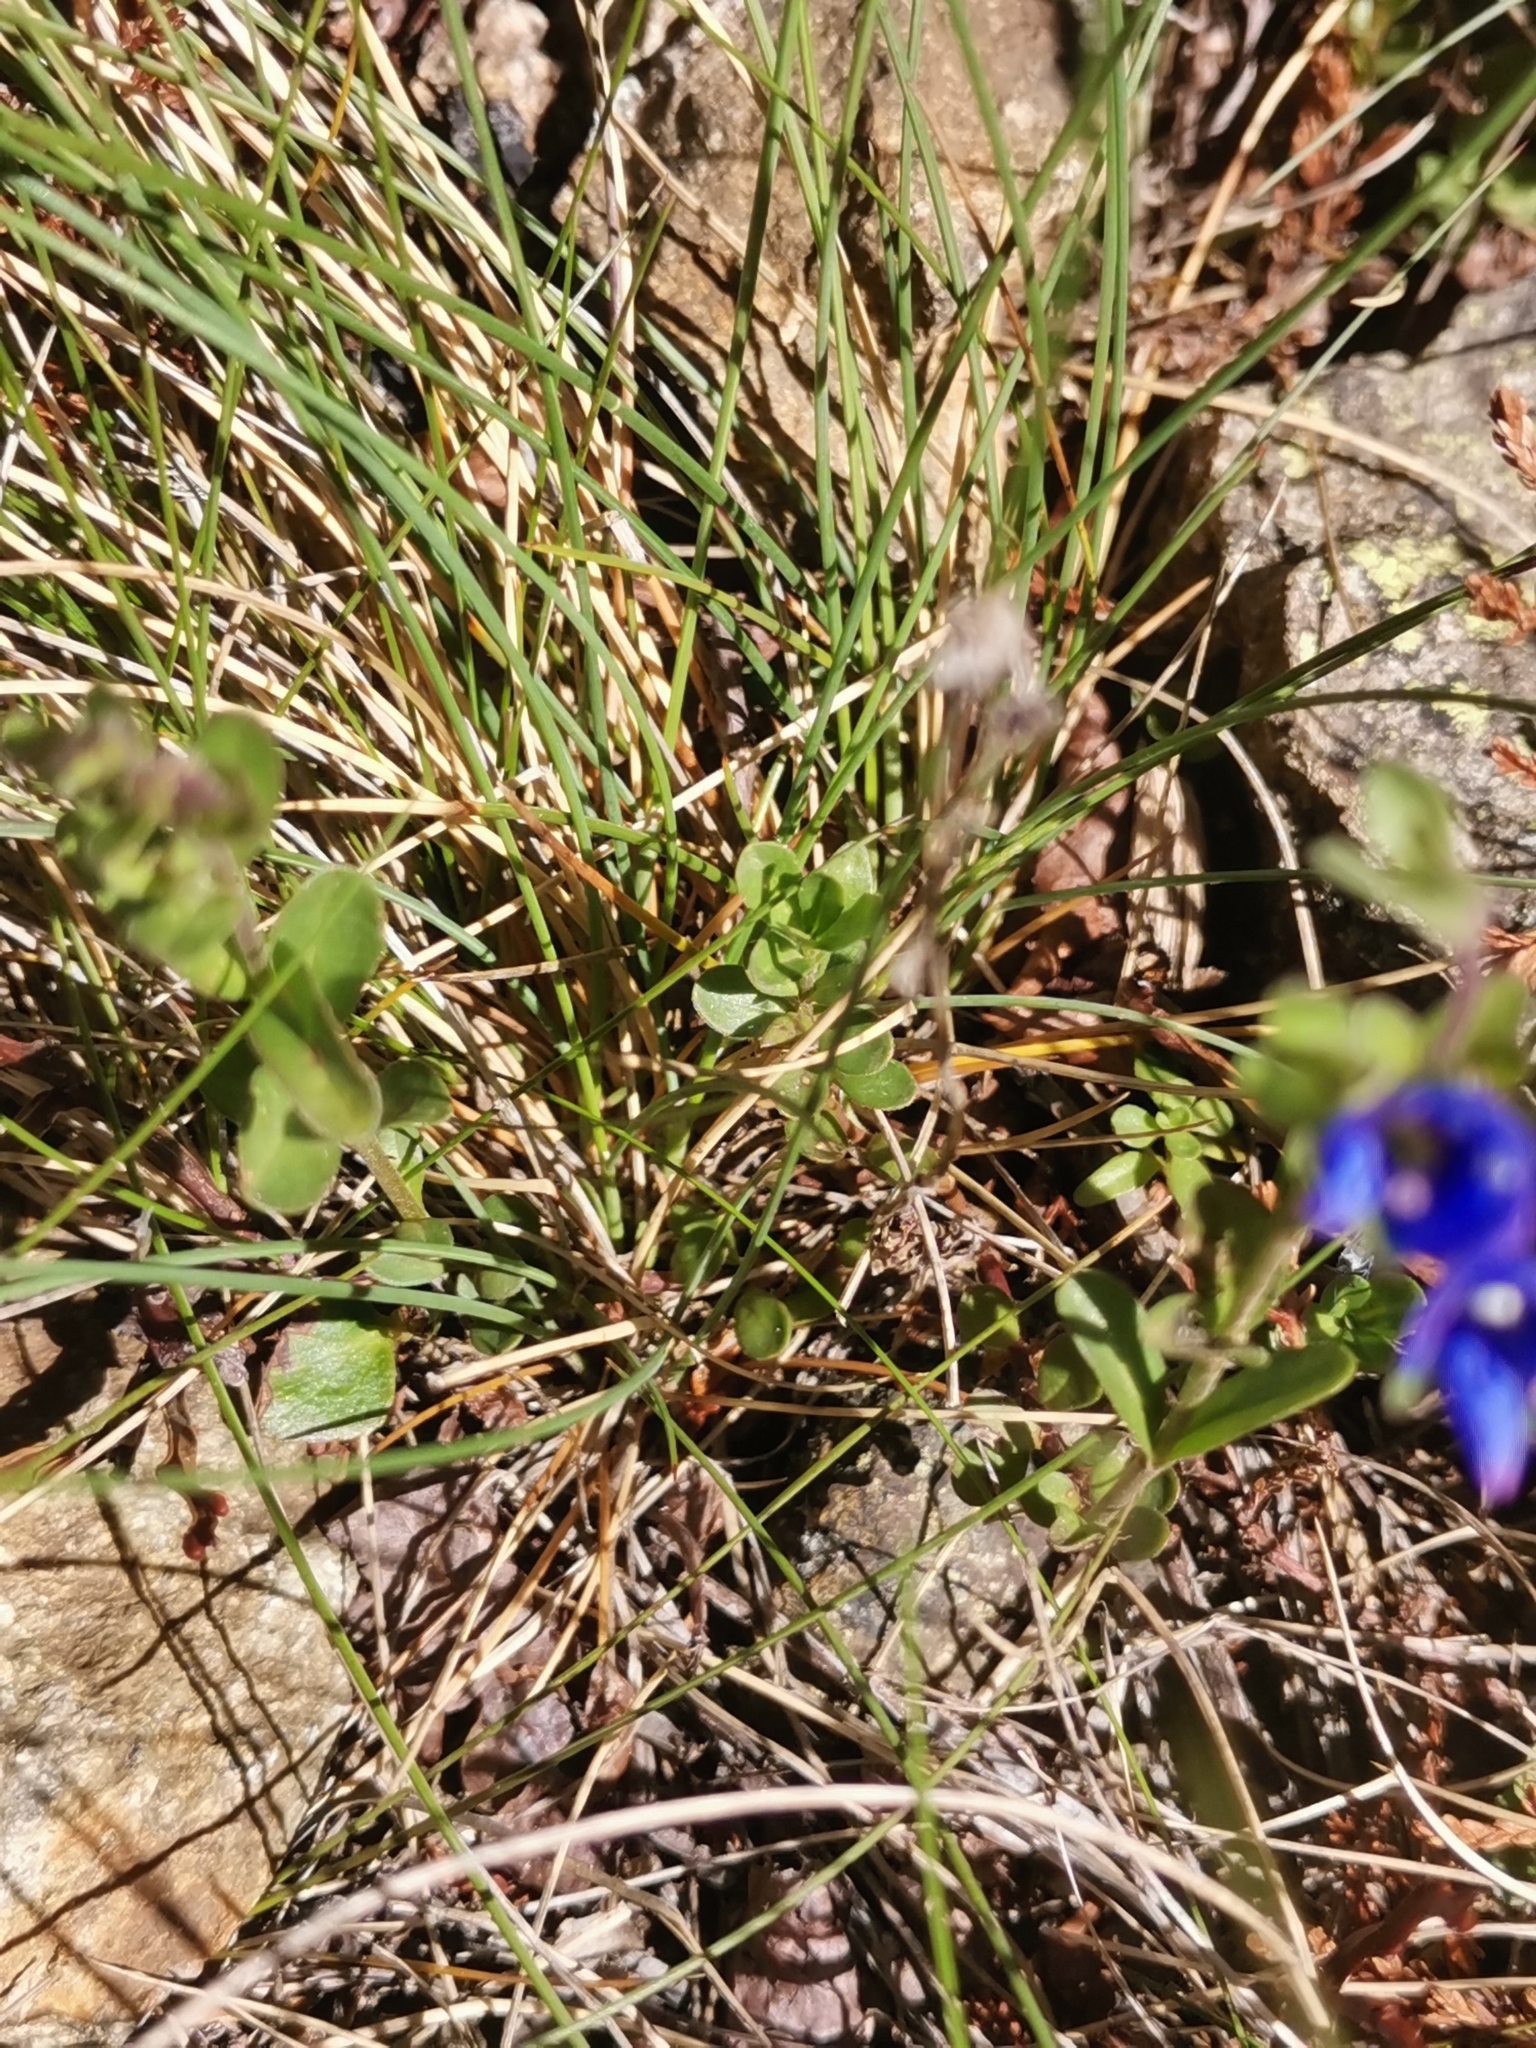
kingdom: Plantae
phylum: Tracheophyta
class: Magnoliopsida
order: Lamiales
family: Plantaginaceae
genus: Veronica
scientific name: Veronica fruticans
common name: Rock speedwell
